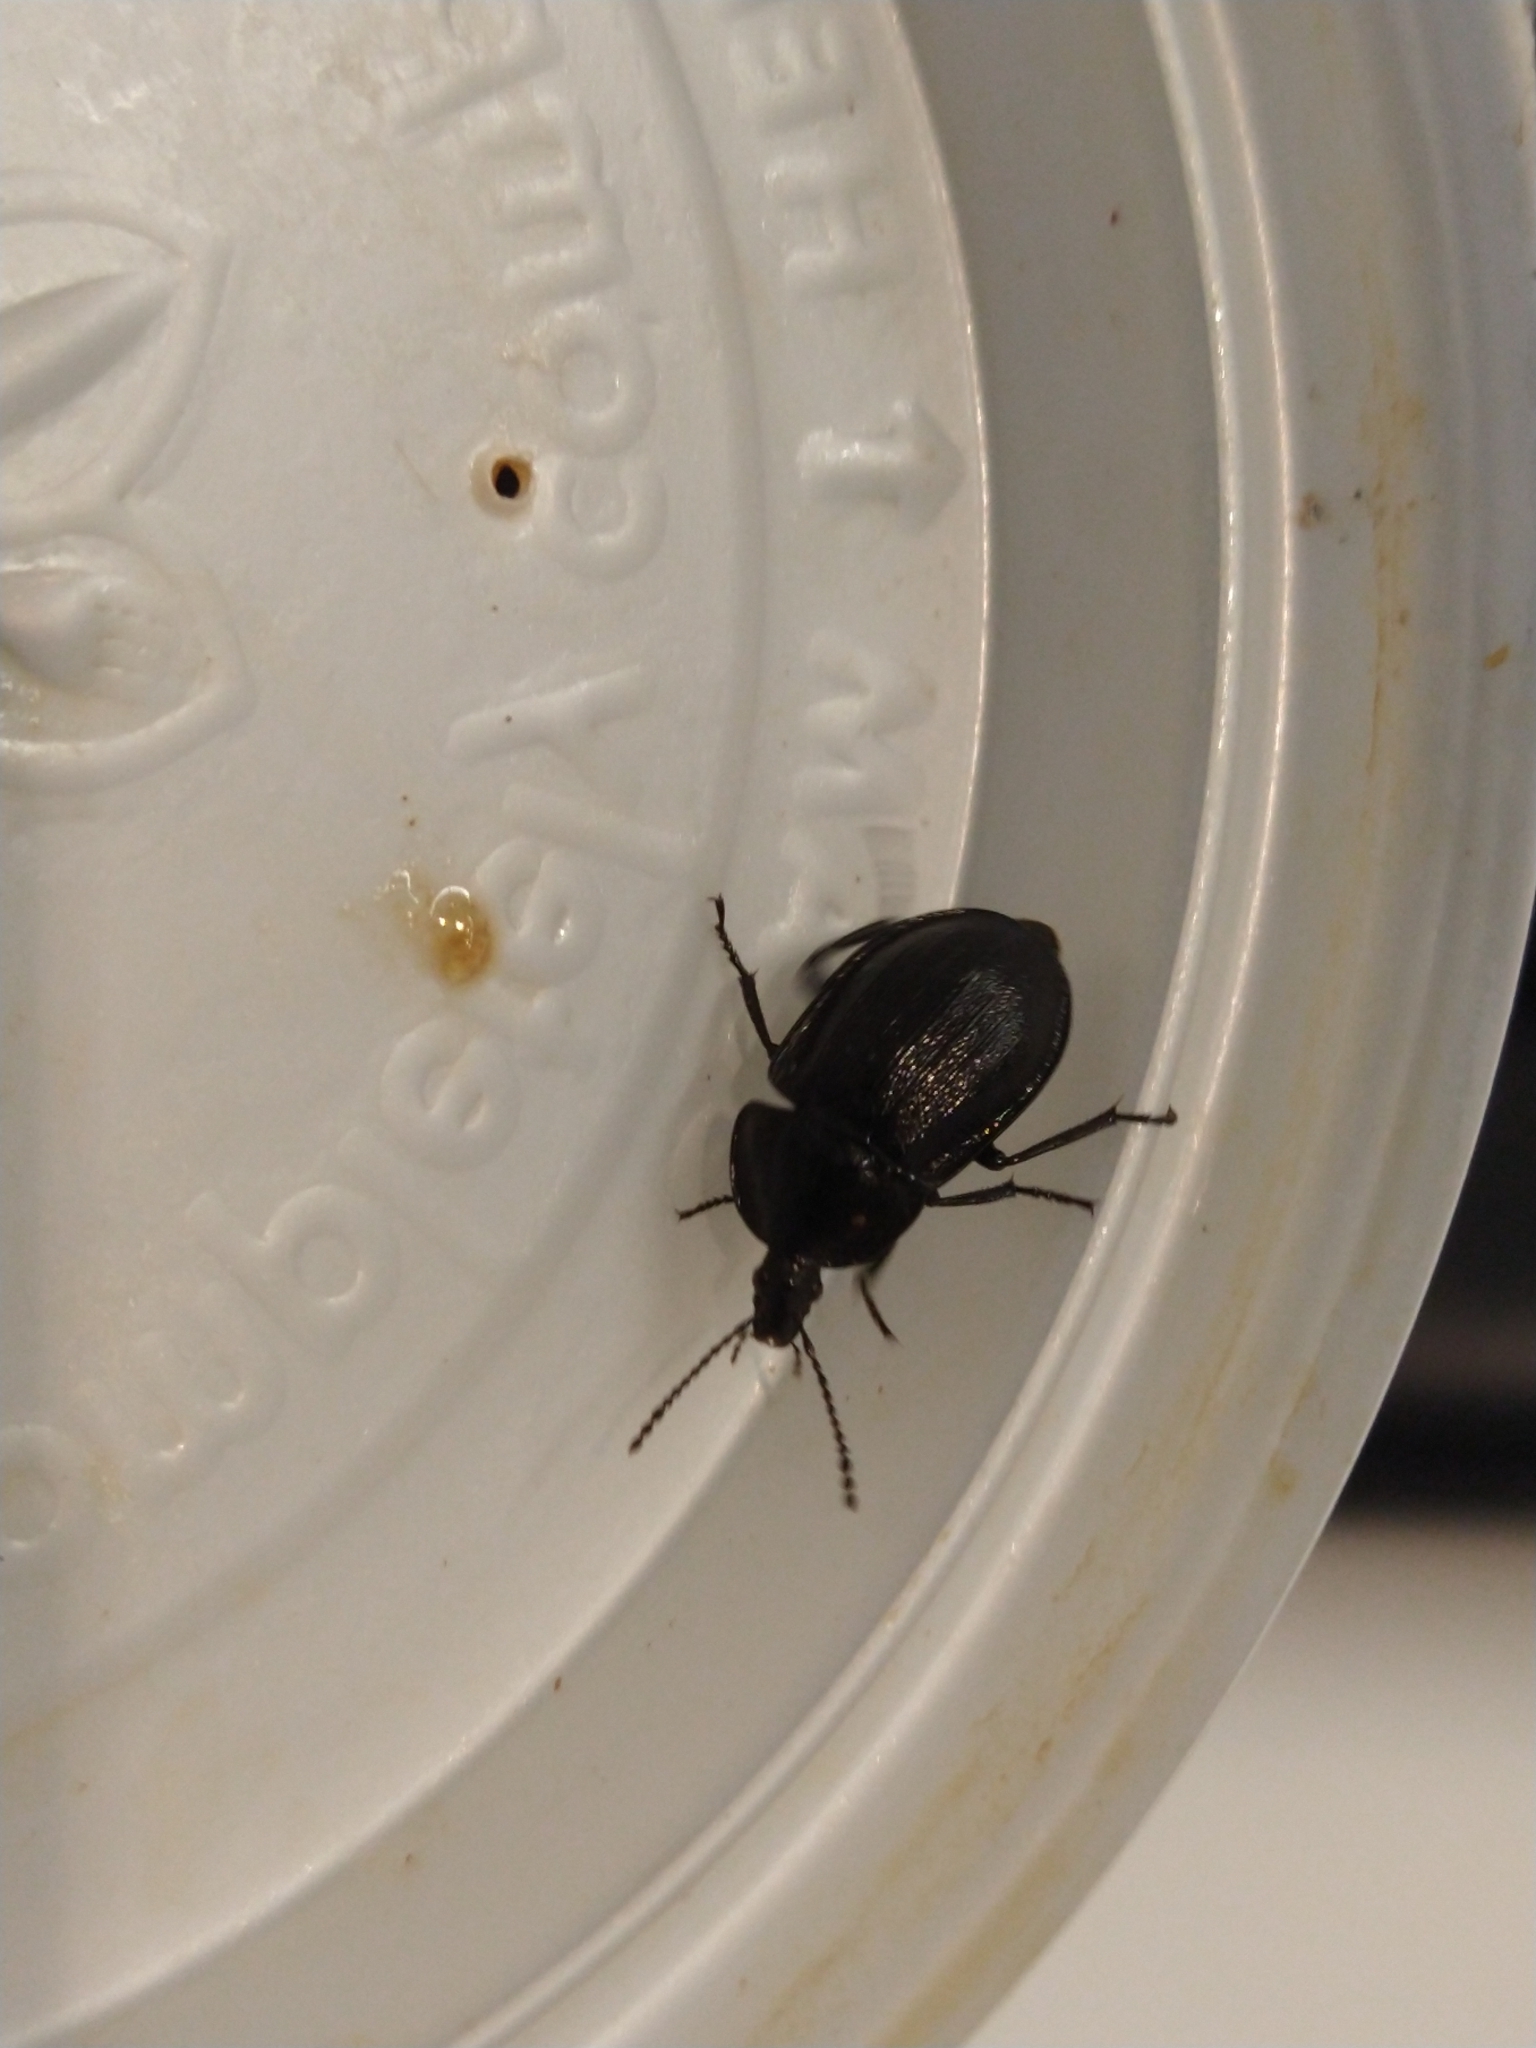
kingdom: Animalia
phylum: Arthropoda
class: Insecta
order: Coleoptera
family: Staphylinidae
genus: Silpha
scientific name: Silpha atrata
